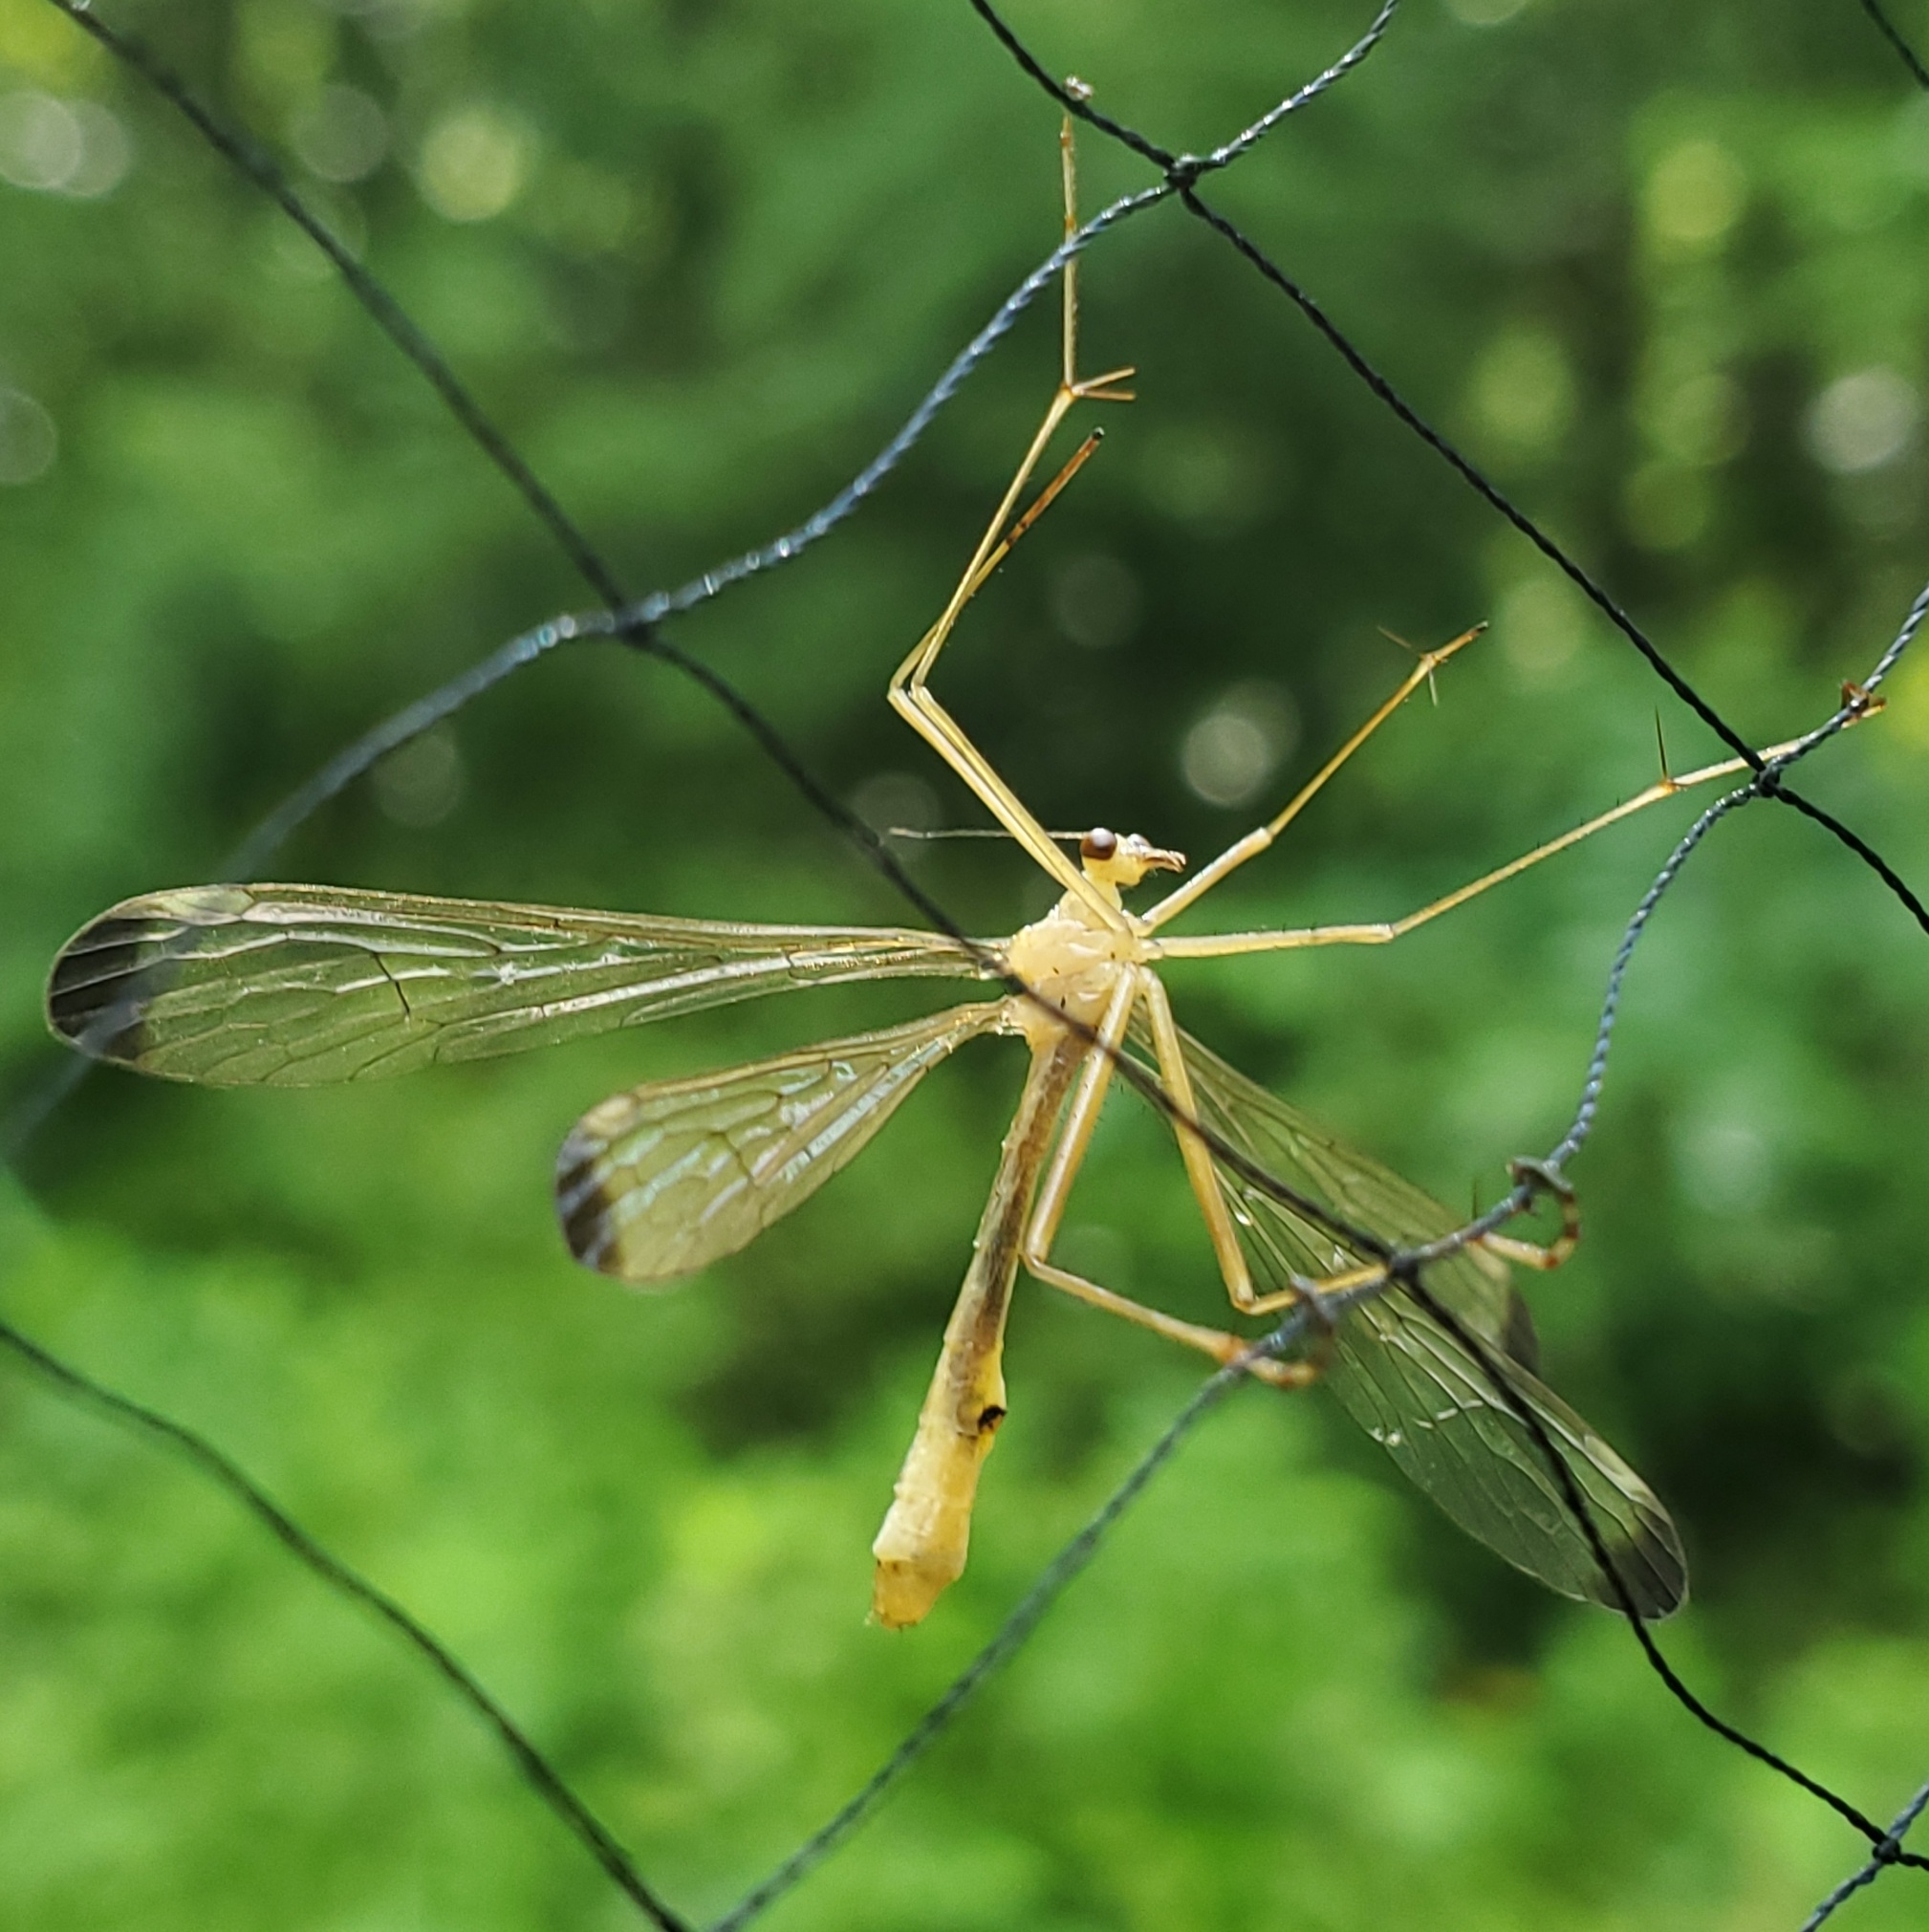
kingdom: Animalia
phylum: Arthropoda
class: Insecta
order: Mecoptera
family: Bittacidae
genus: Hylobittacus
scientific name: Hylobittacus apicalis
